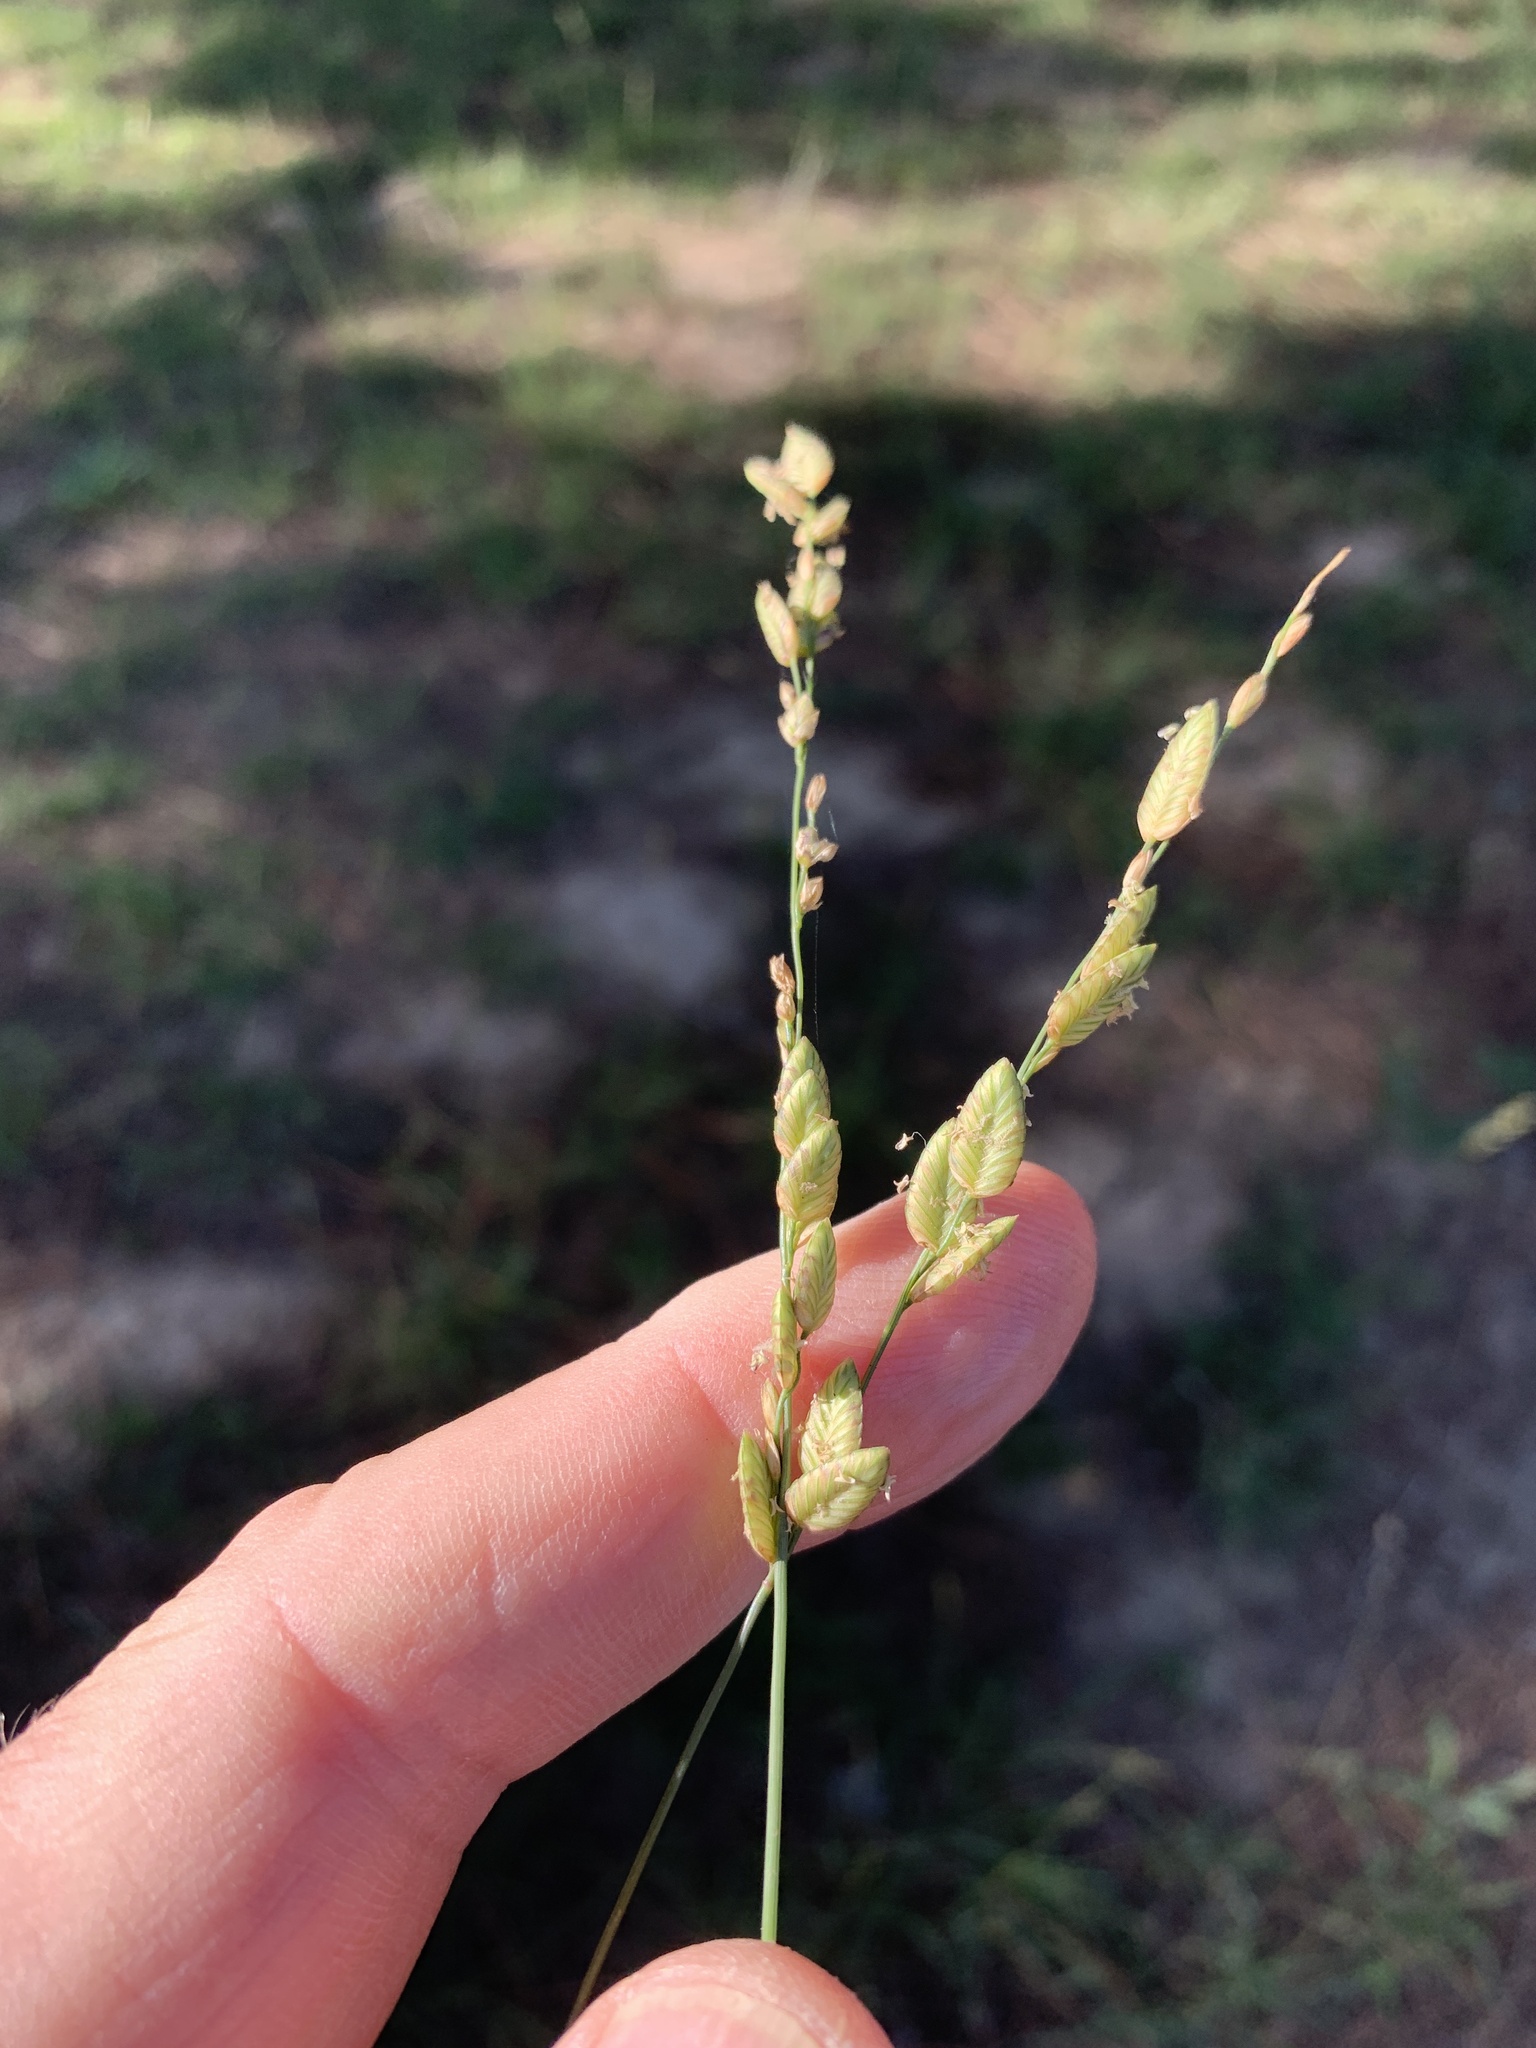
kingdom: Plantae
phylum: Tracheophyta
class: Liliopsida
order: Poales
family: Poaceae
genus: Eragrostis
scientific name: Eragrostis capensis
